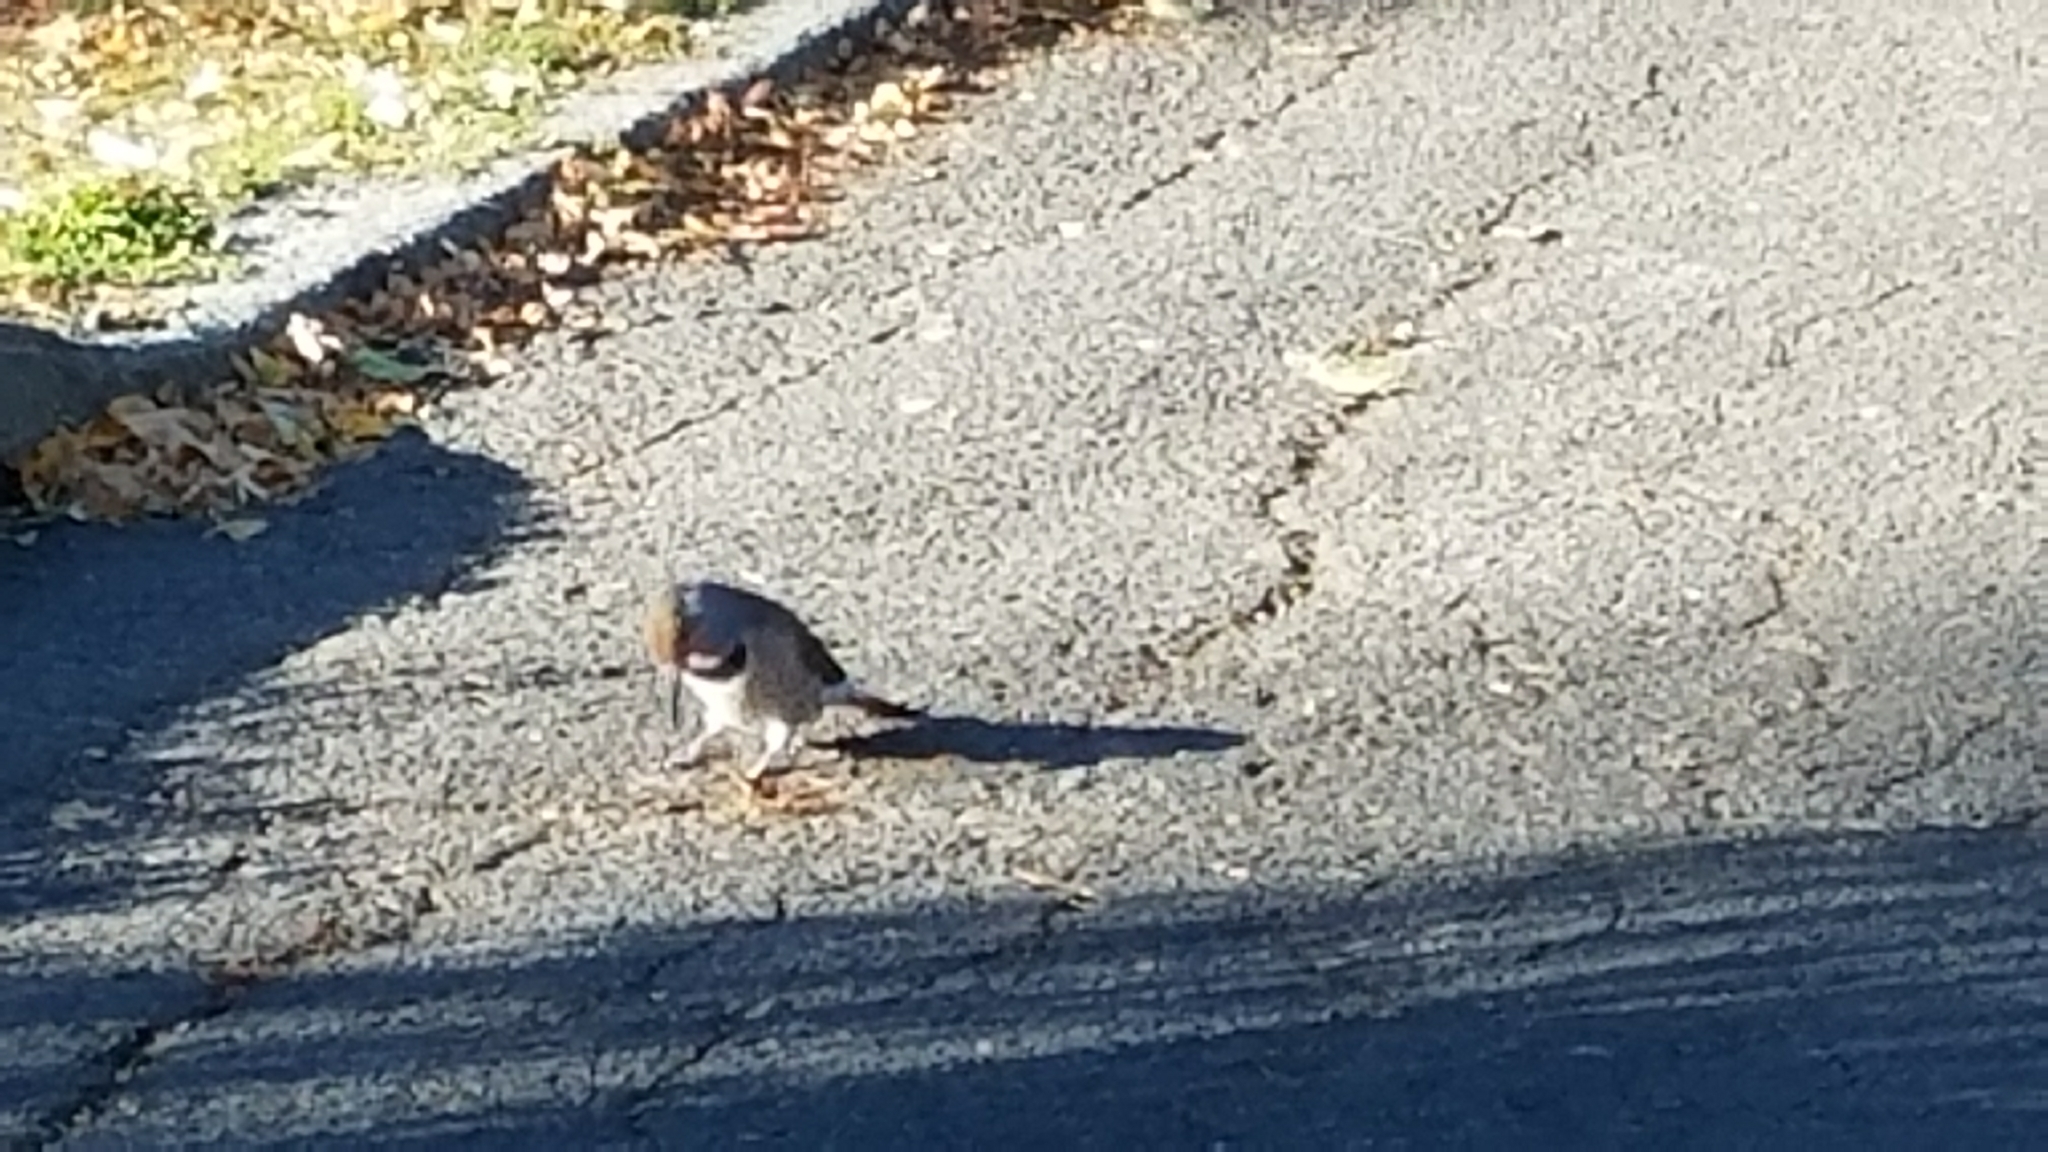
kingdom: Animalia
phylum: Chordata
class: Aves
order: Piciformes
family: Picidae
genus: Colaptes
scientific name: Colaptes auratus
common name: Northern flicker
